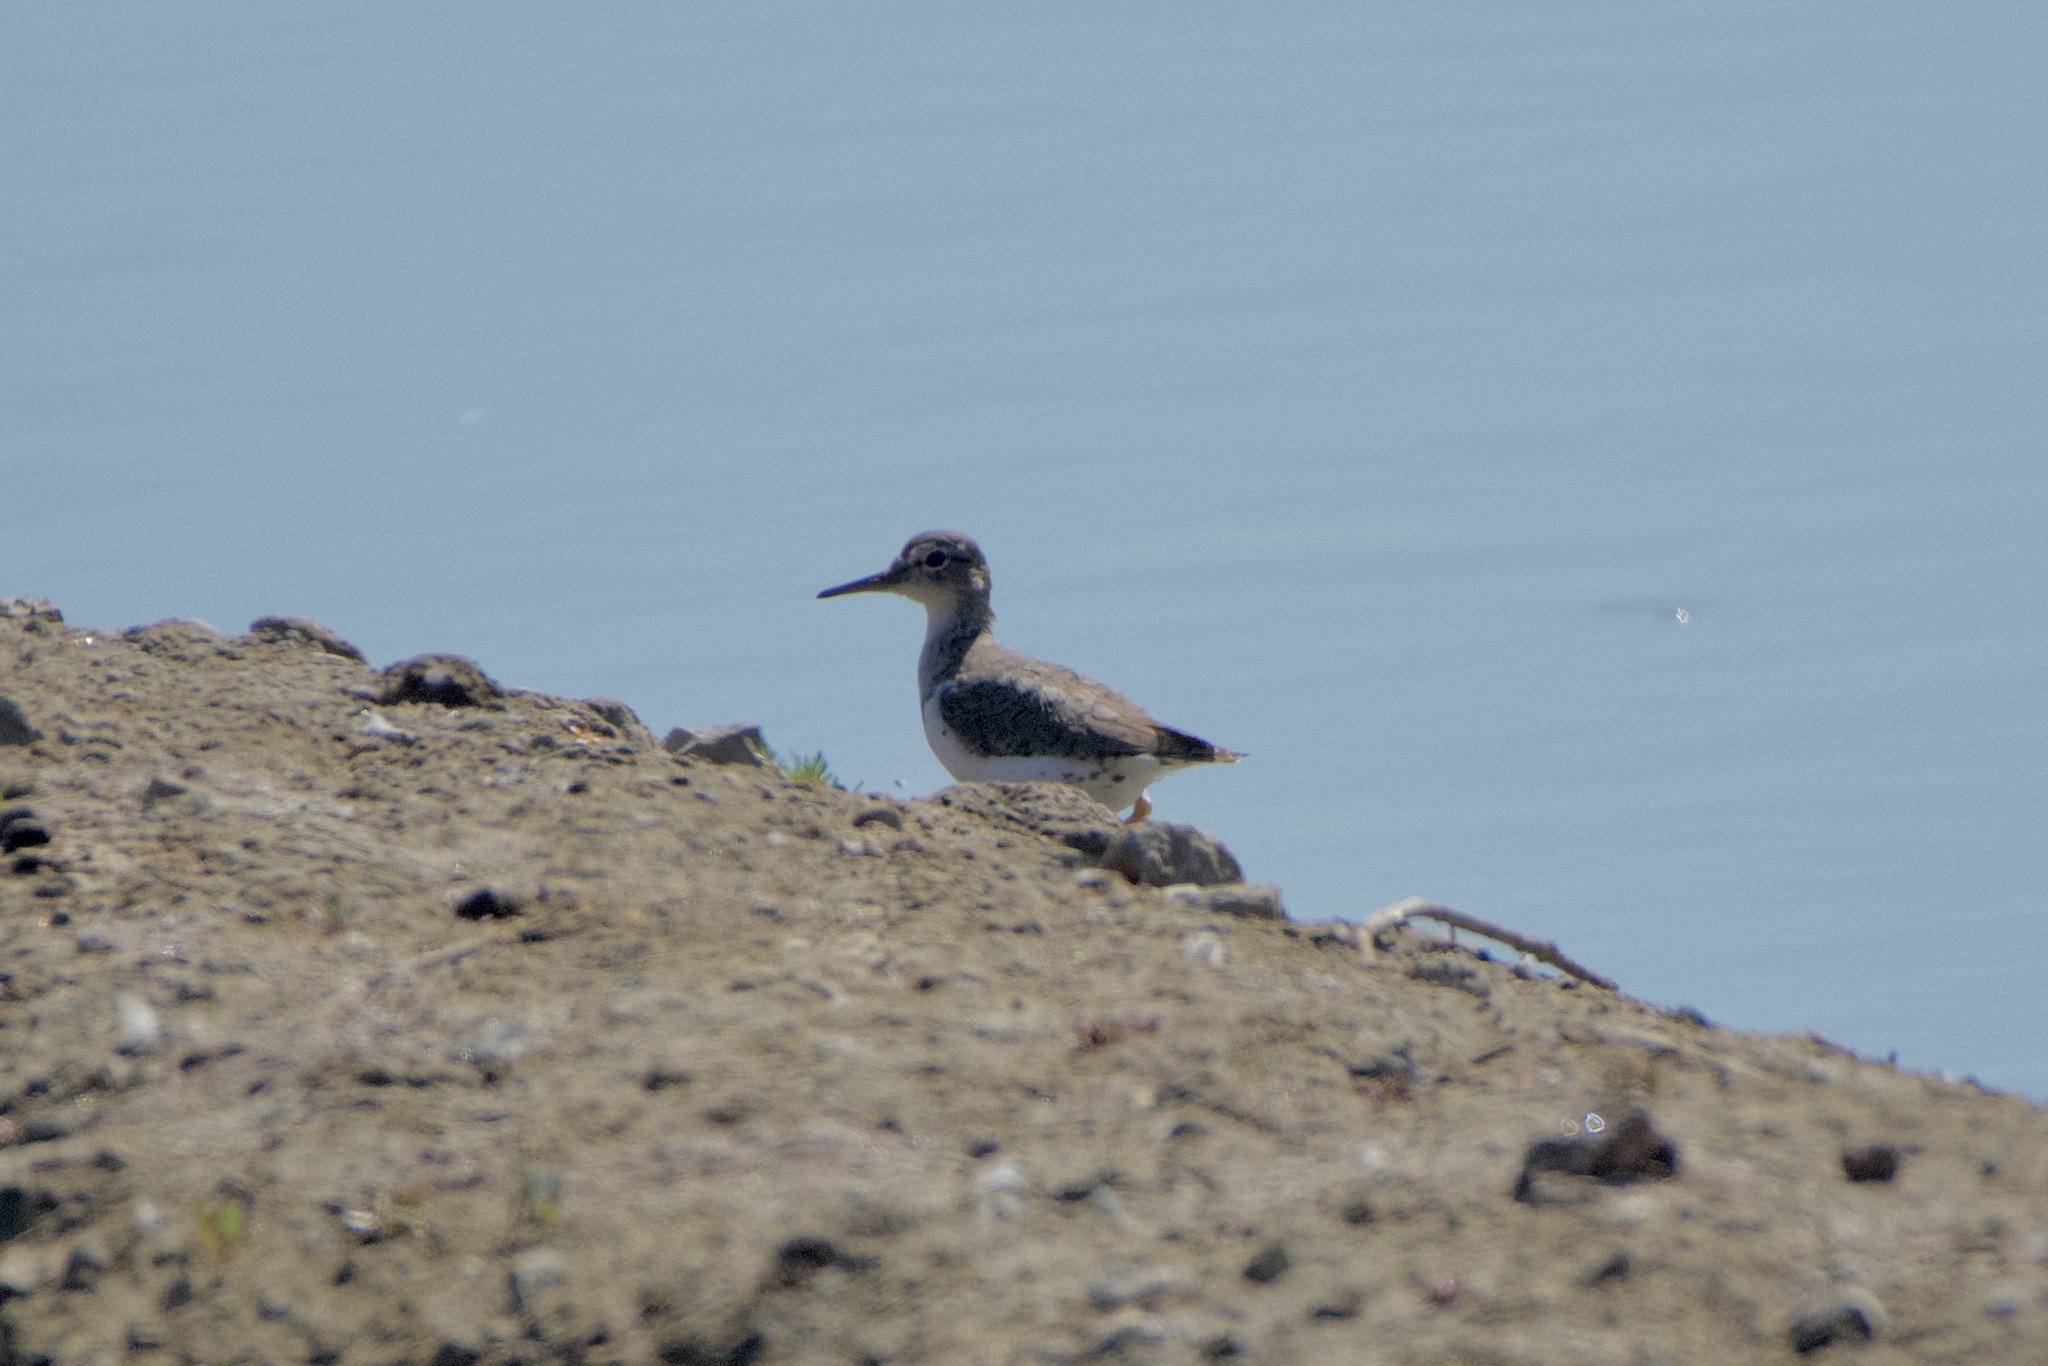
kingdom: Animalia
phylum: Chordata
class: Aves
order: Charadriiformes
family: Scolopacidae
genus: Actitis
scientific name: Actitis macularius
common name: Spotted sandpiper
